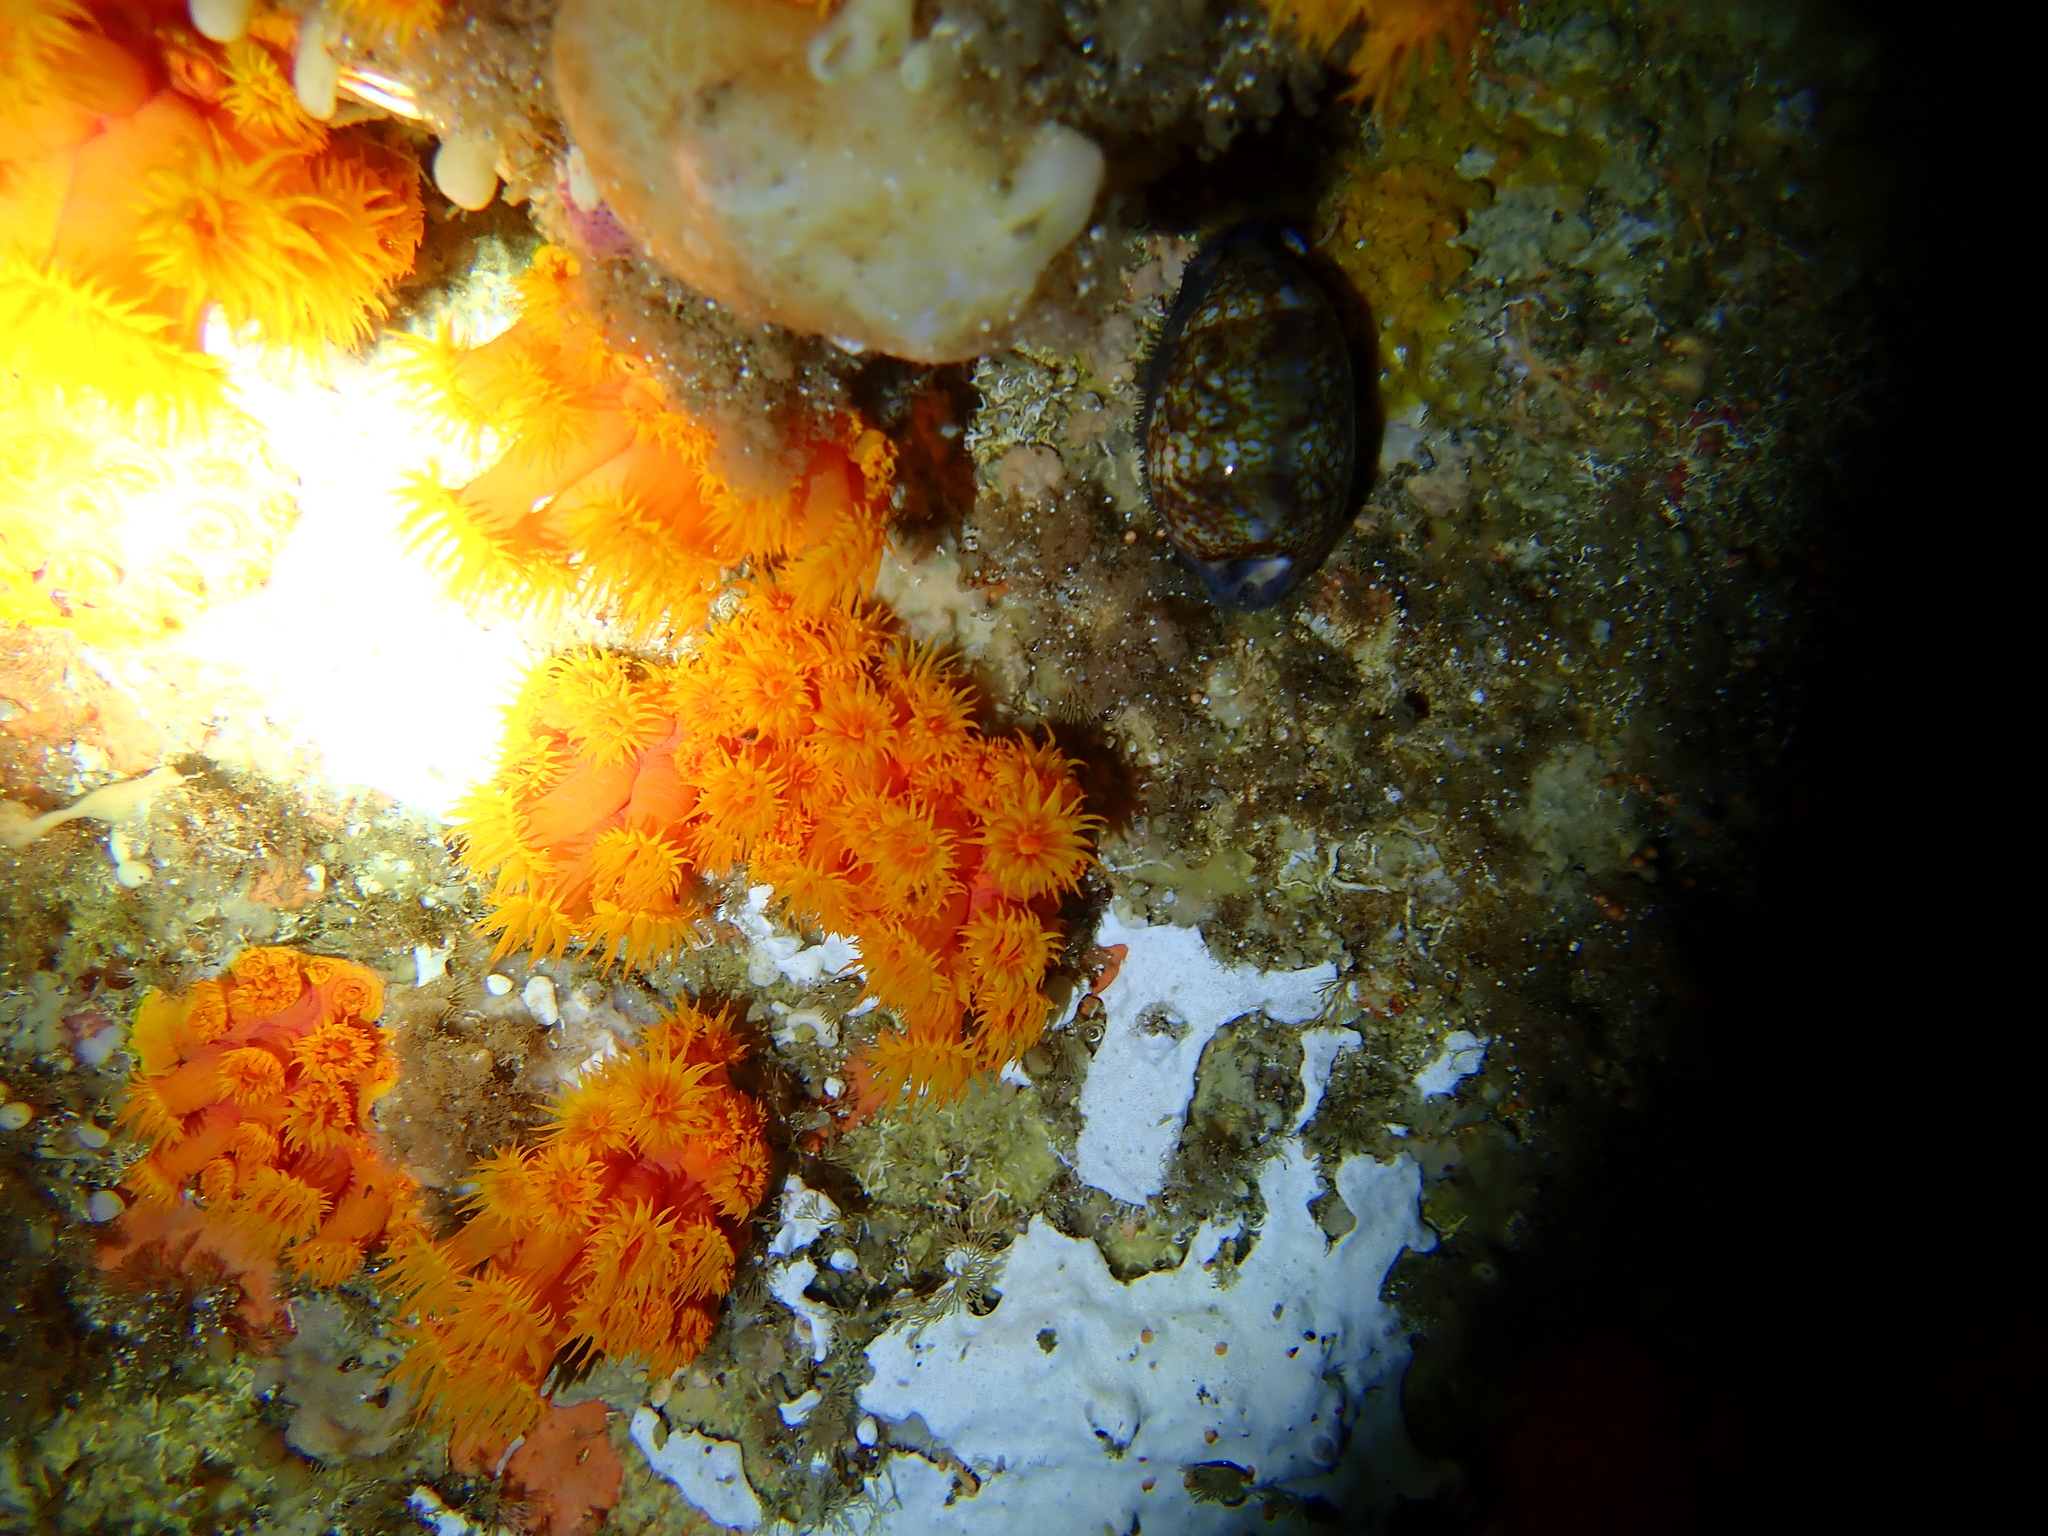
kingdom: Animalia
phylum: Cnidaria
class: Anthozoa
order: Scleractinia
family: Dendrophylliidae
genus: Tubastraea
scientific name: Tubastraea coccinea
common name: Orange cup coral
